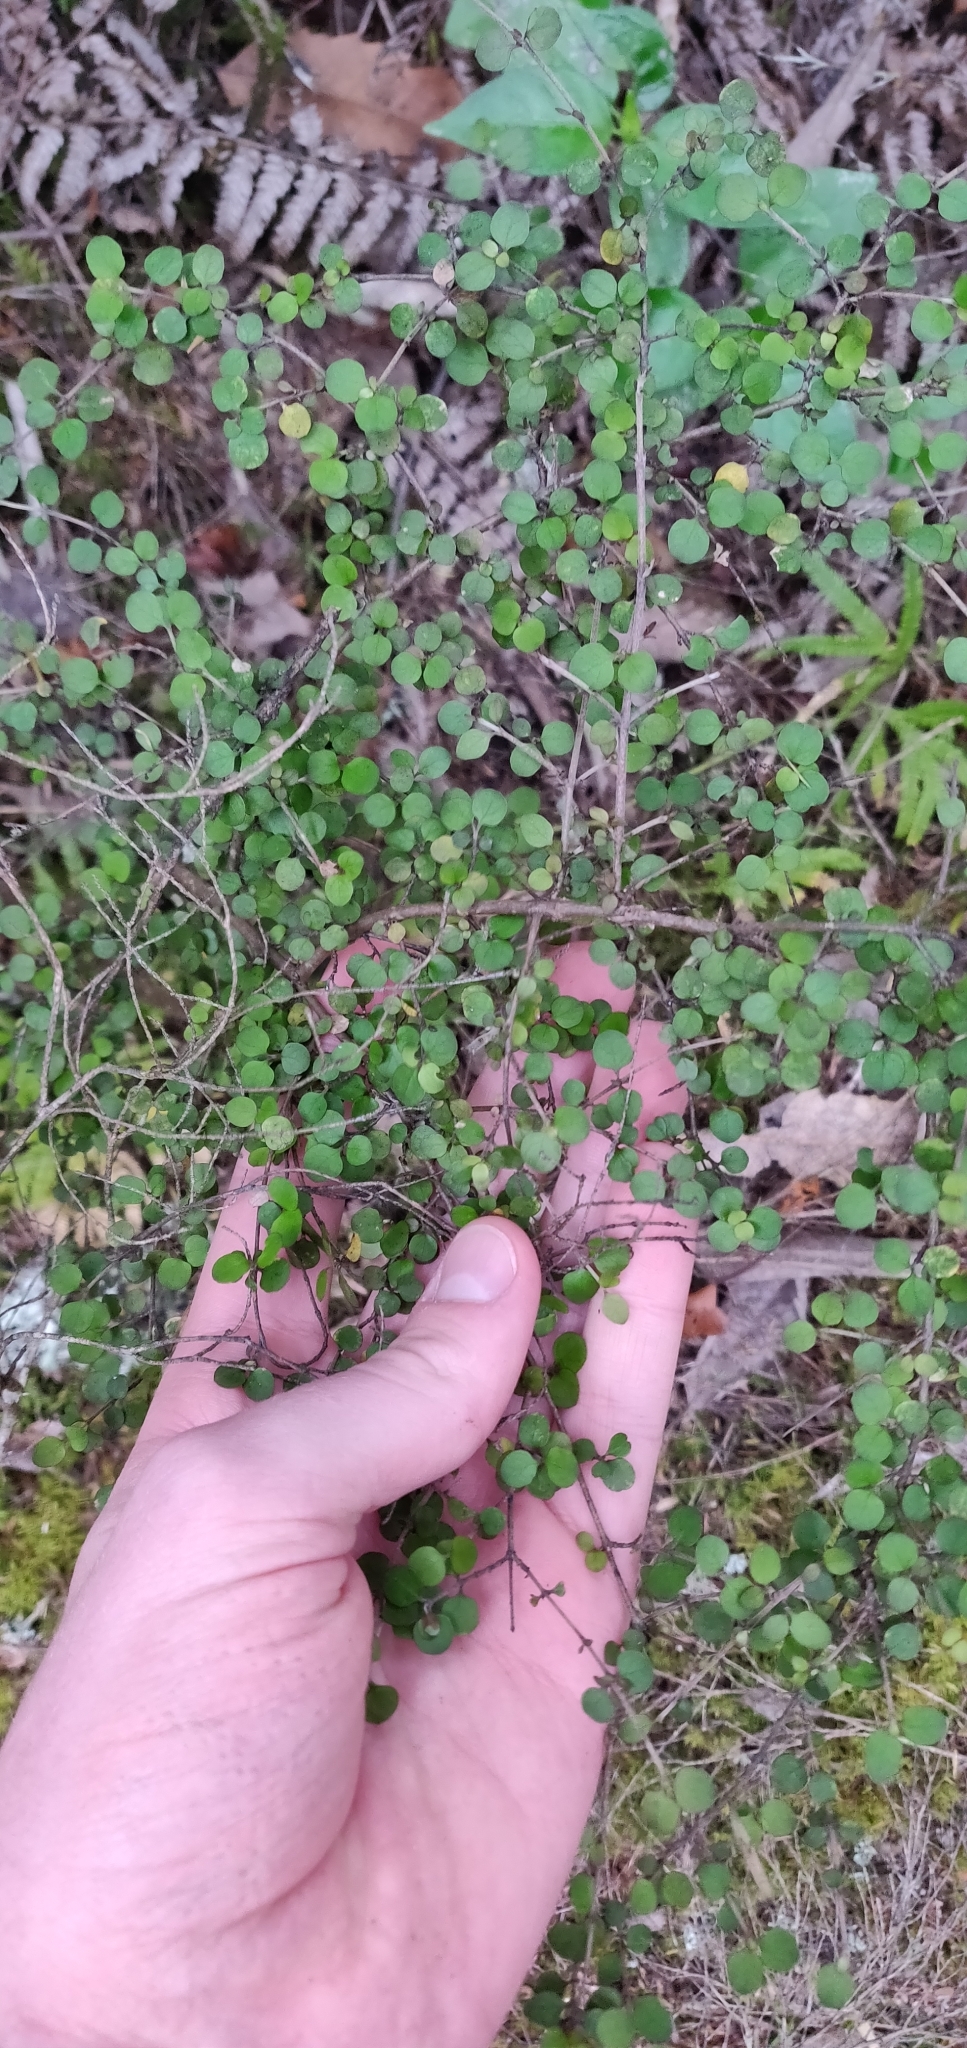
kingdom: Plantae
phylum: Tracheophyta
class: Magnoliopsida
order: Gentianales
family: Rubiaceae
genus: Coprosma
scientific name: Coprosma rhamnoides
